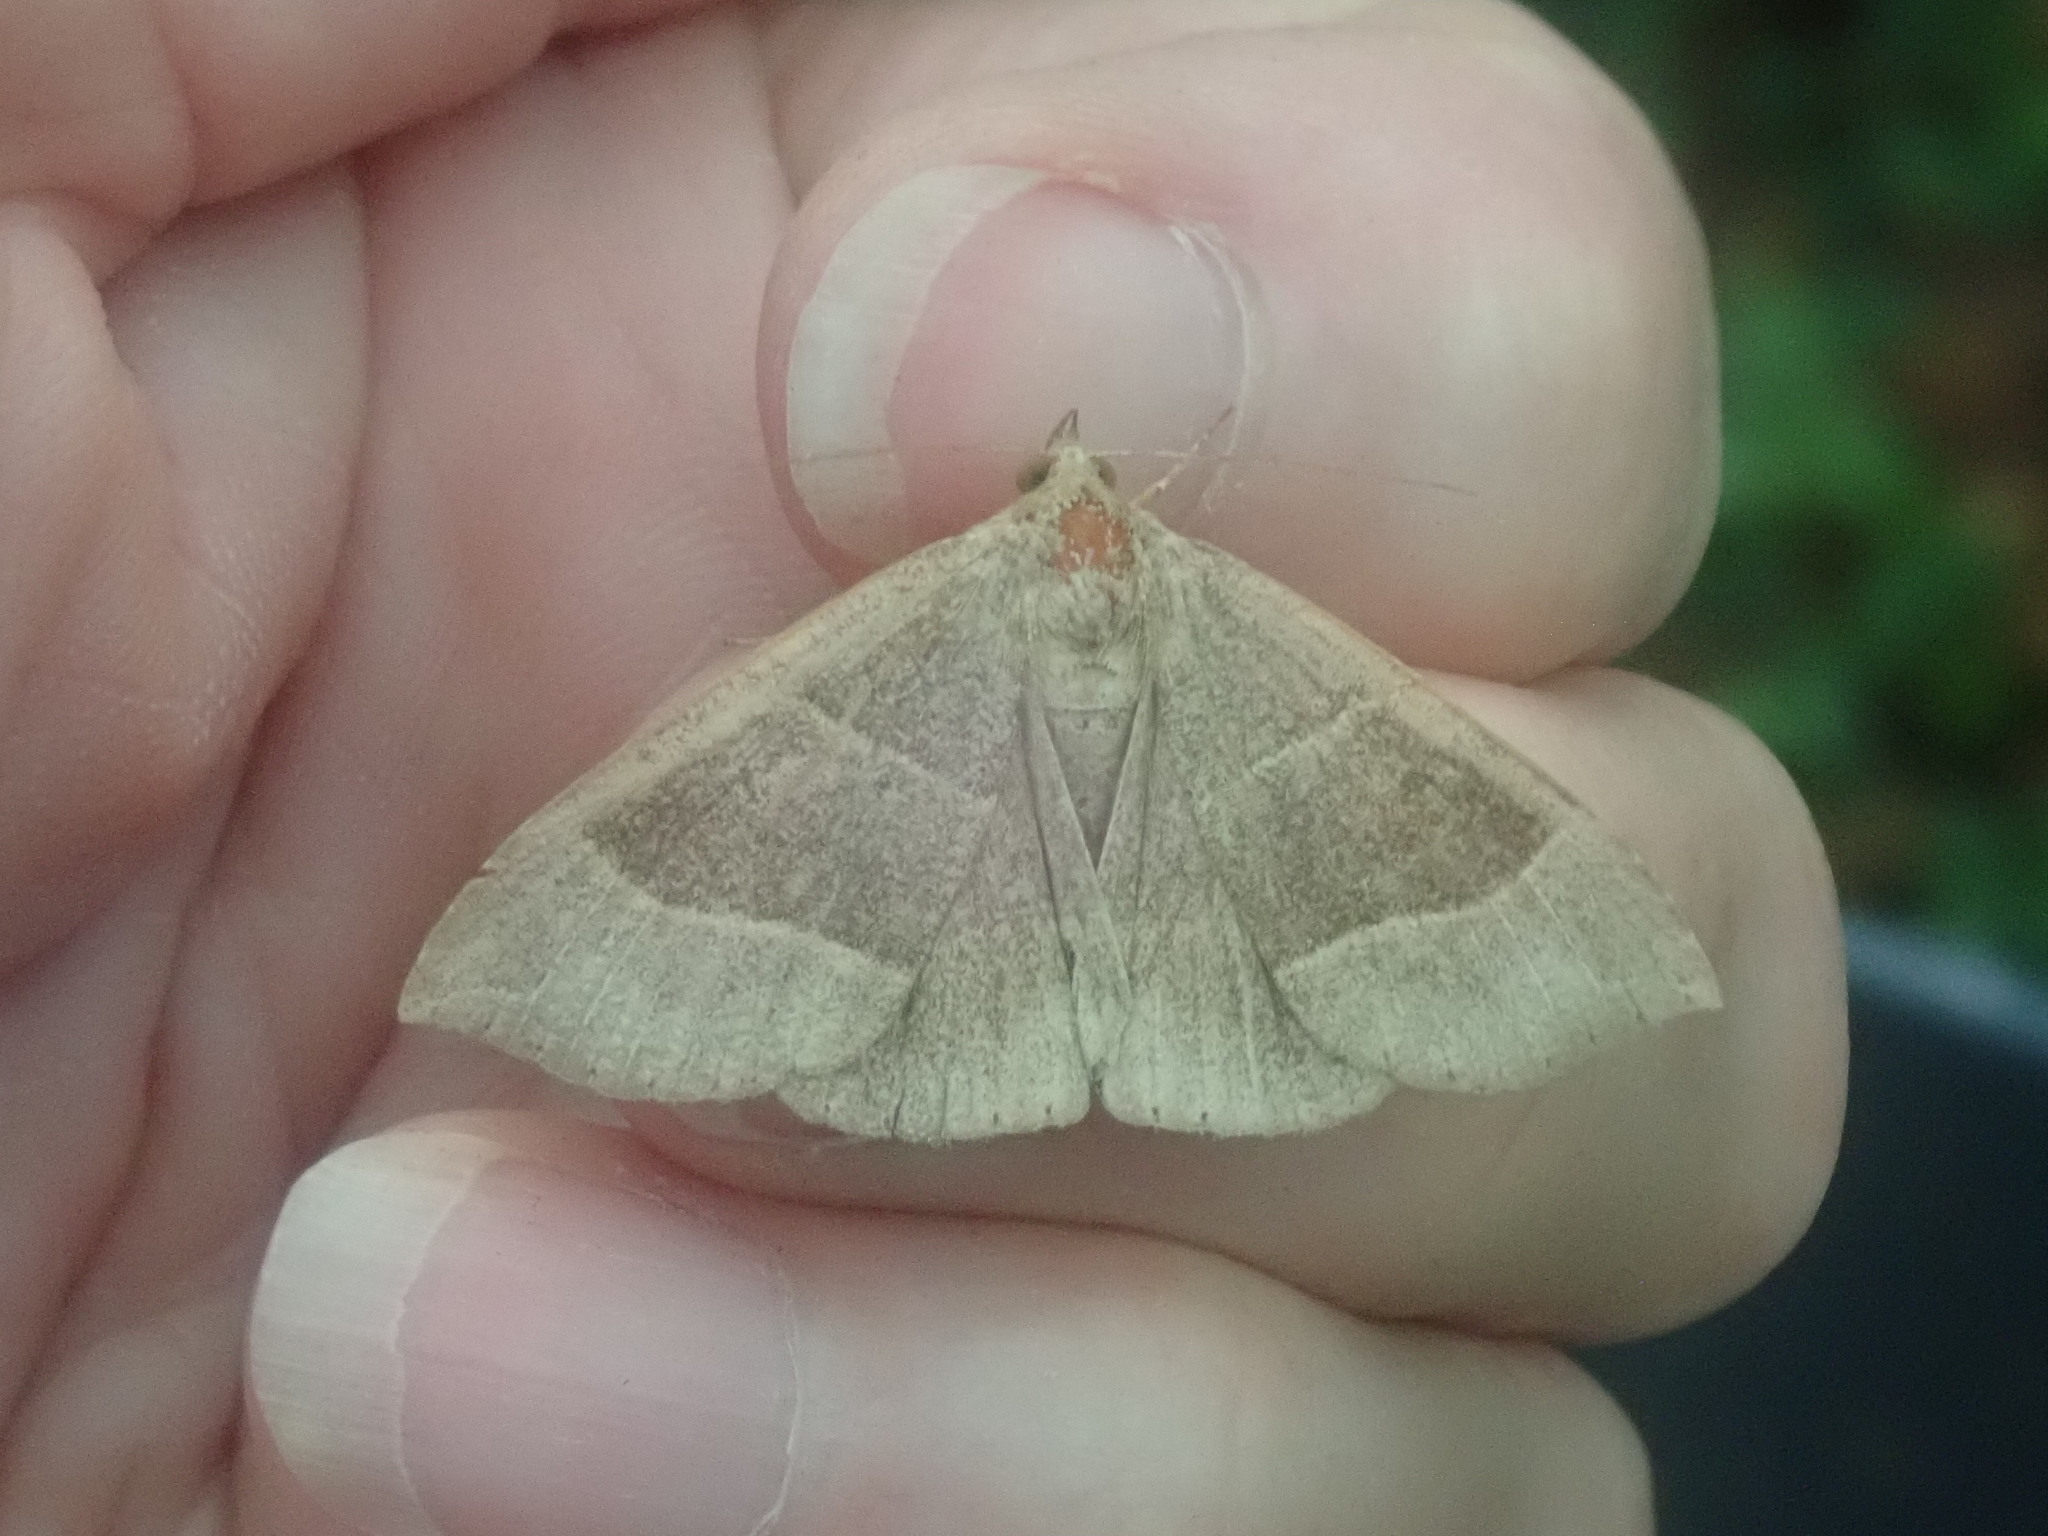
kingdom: Animalia
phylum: Arthropoda
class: Insecta
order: Lepidoptera
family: Erebidae
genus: Parallelia
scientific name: Parallelia bistriaris
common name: Maple looper moth
